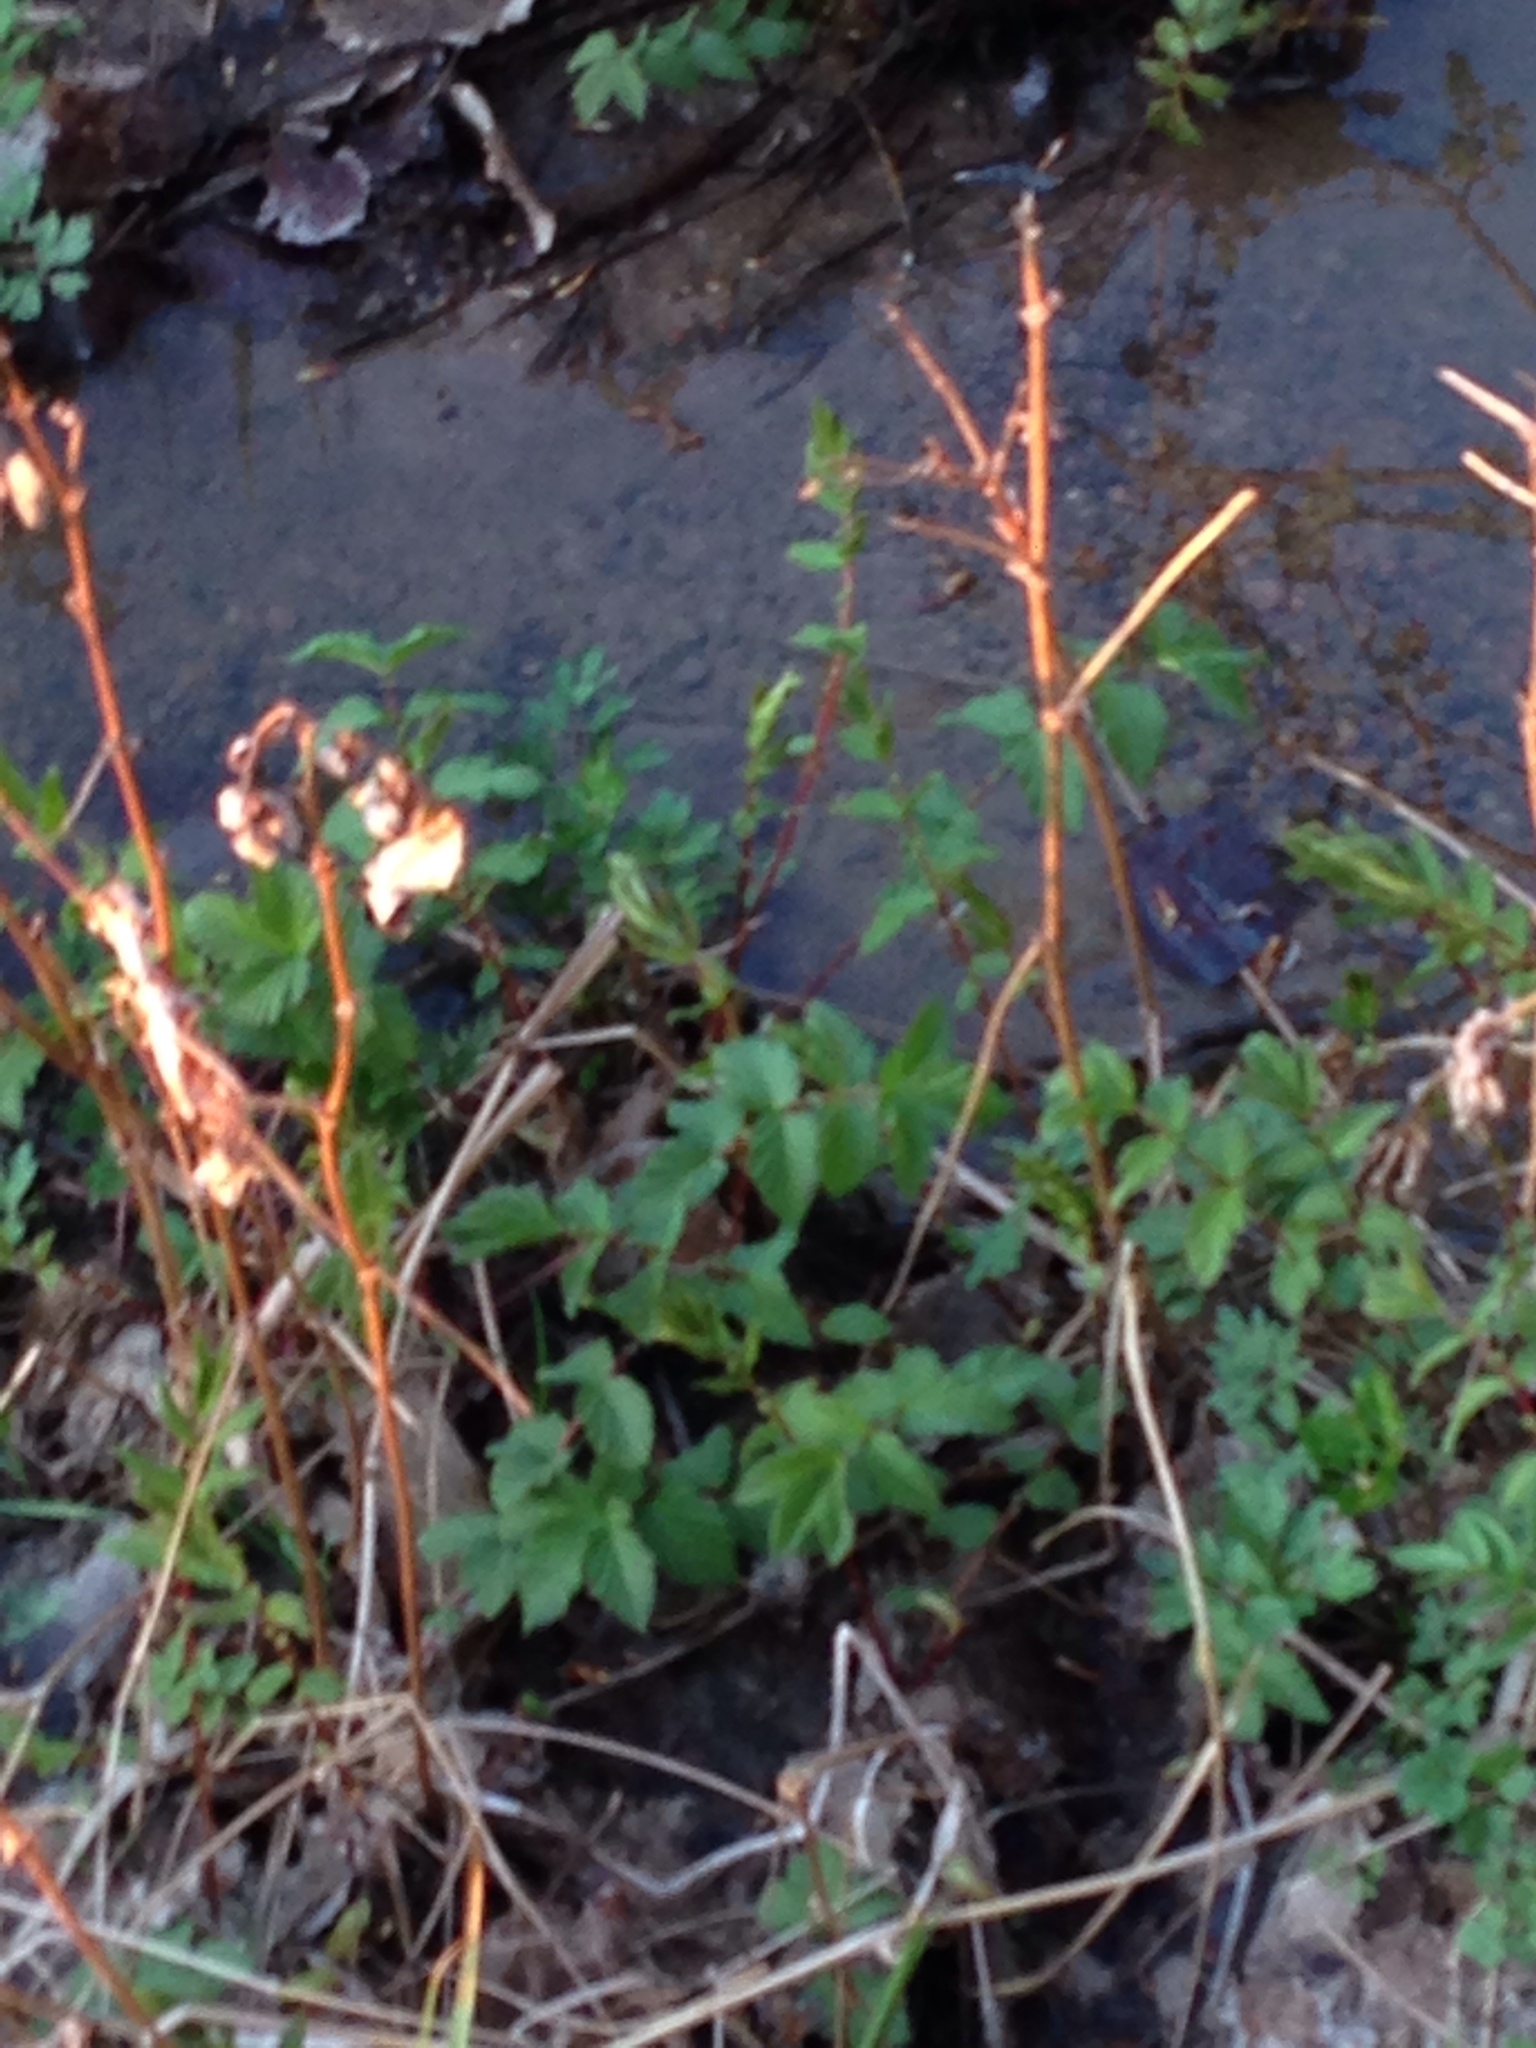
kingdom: Plantae
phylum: Tracheophyta
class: Magnoliopsida
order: Rosales
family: Rosaceae
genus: Filipendula
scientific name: Filipendula ulmaria
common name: Meadowsweet
